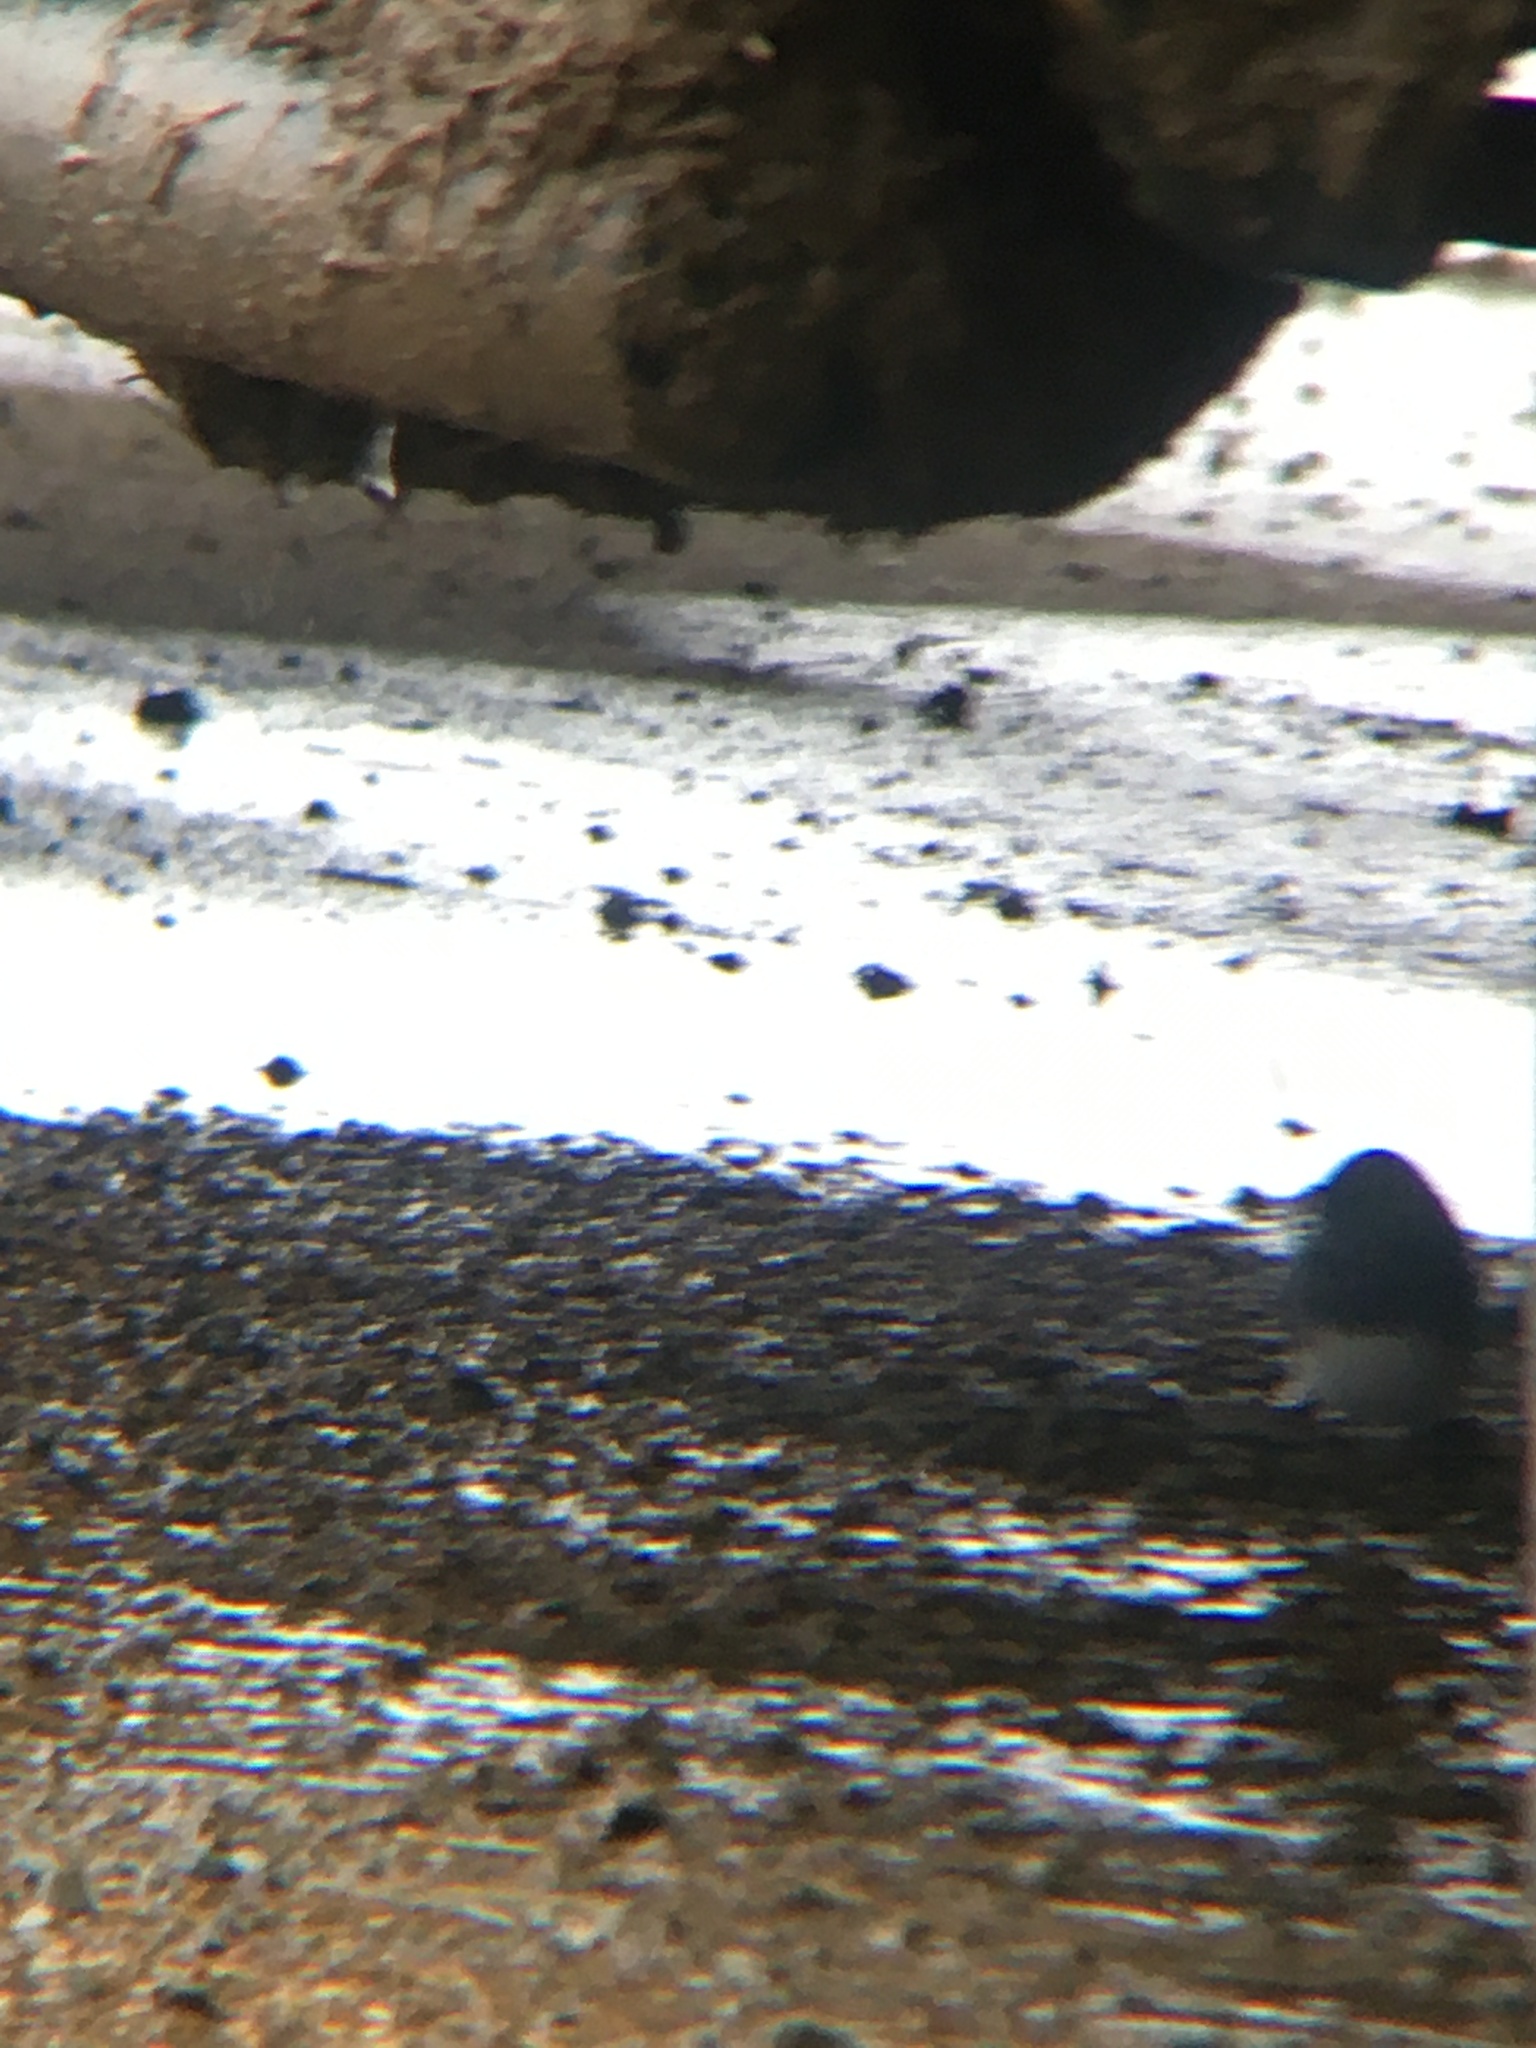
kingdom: Animalia
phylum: Chordata
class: Aves
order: Passeriformes
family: Passerellidae
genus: Junco
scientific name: Junco hyemalis
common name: Dark-eyed junco
